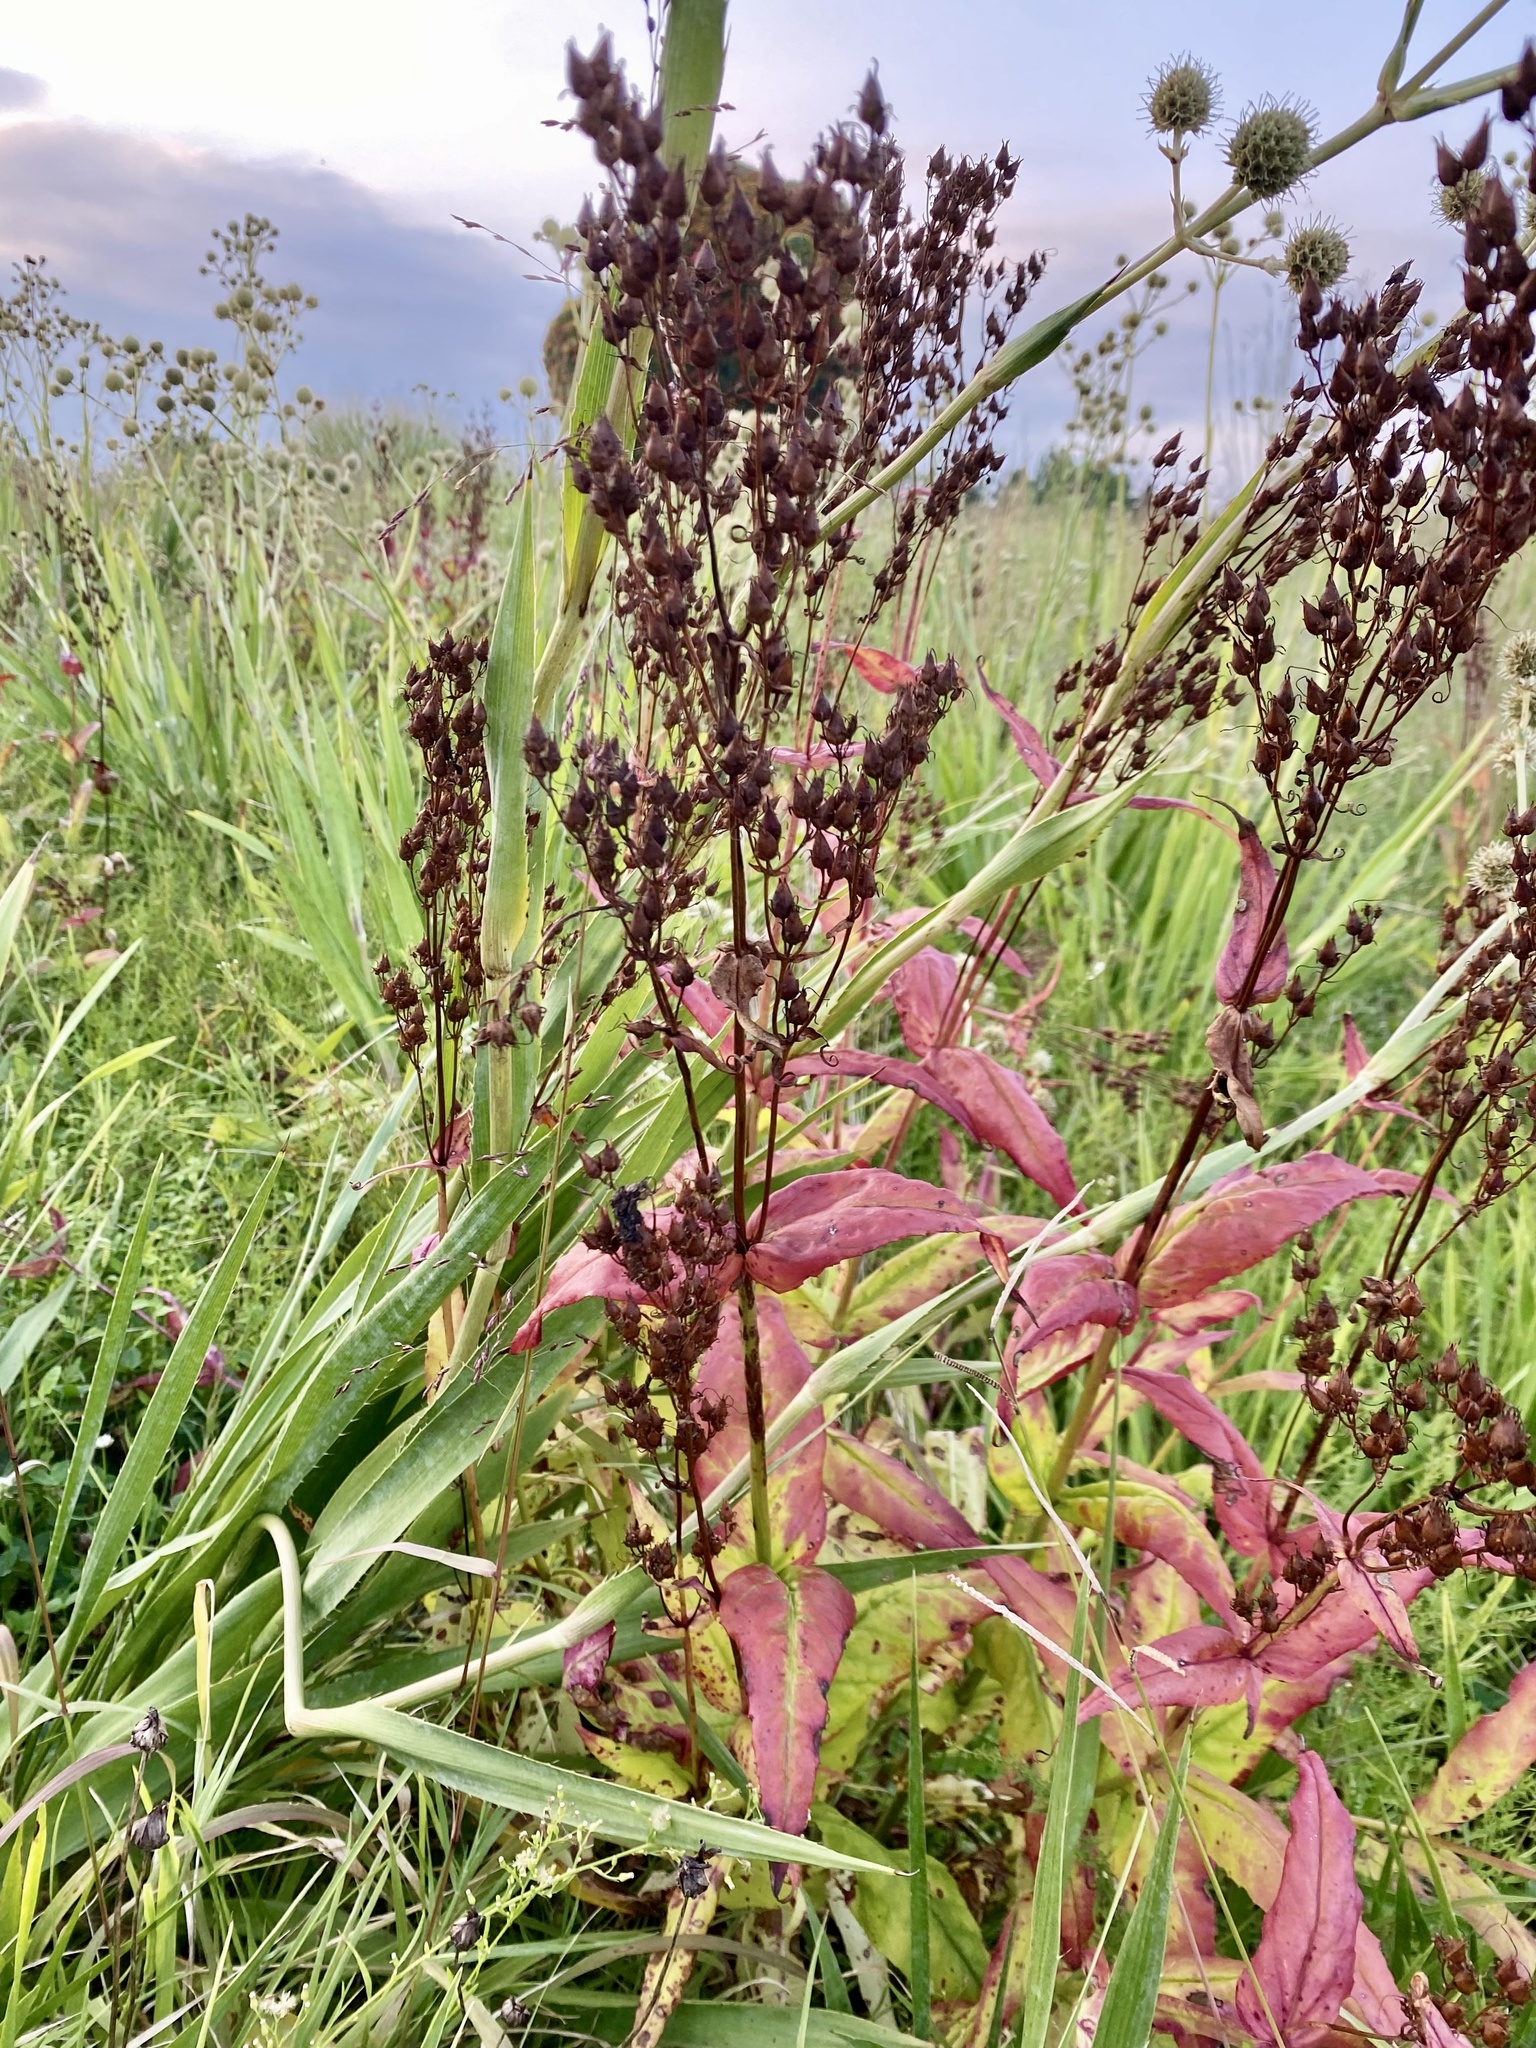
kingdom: Plantae
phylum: Tracheophyta
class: Magnoliopsida
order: Lamiales
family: Plantaginaceae
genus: Penstemon
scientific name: Penstemon digitalis
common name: Foxglove beardtongue
